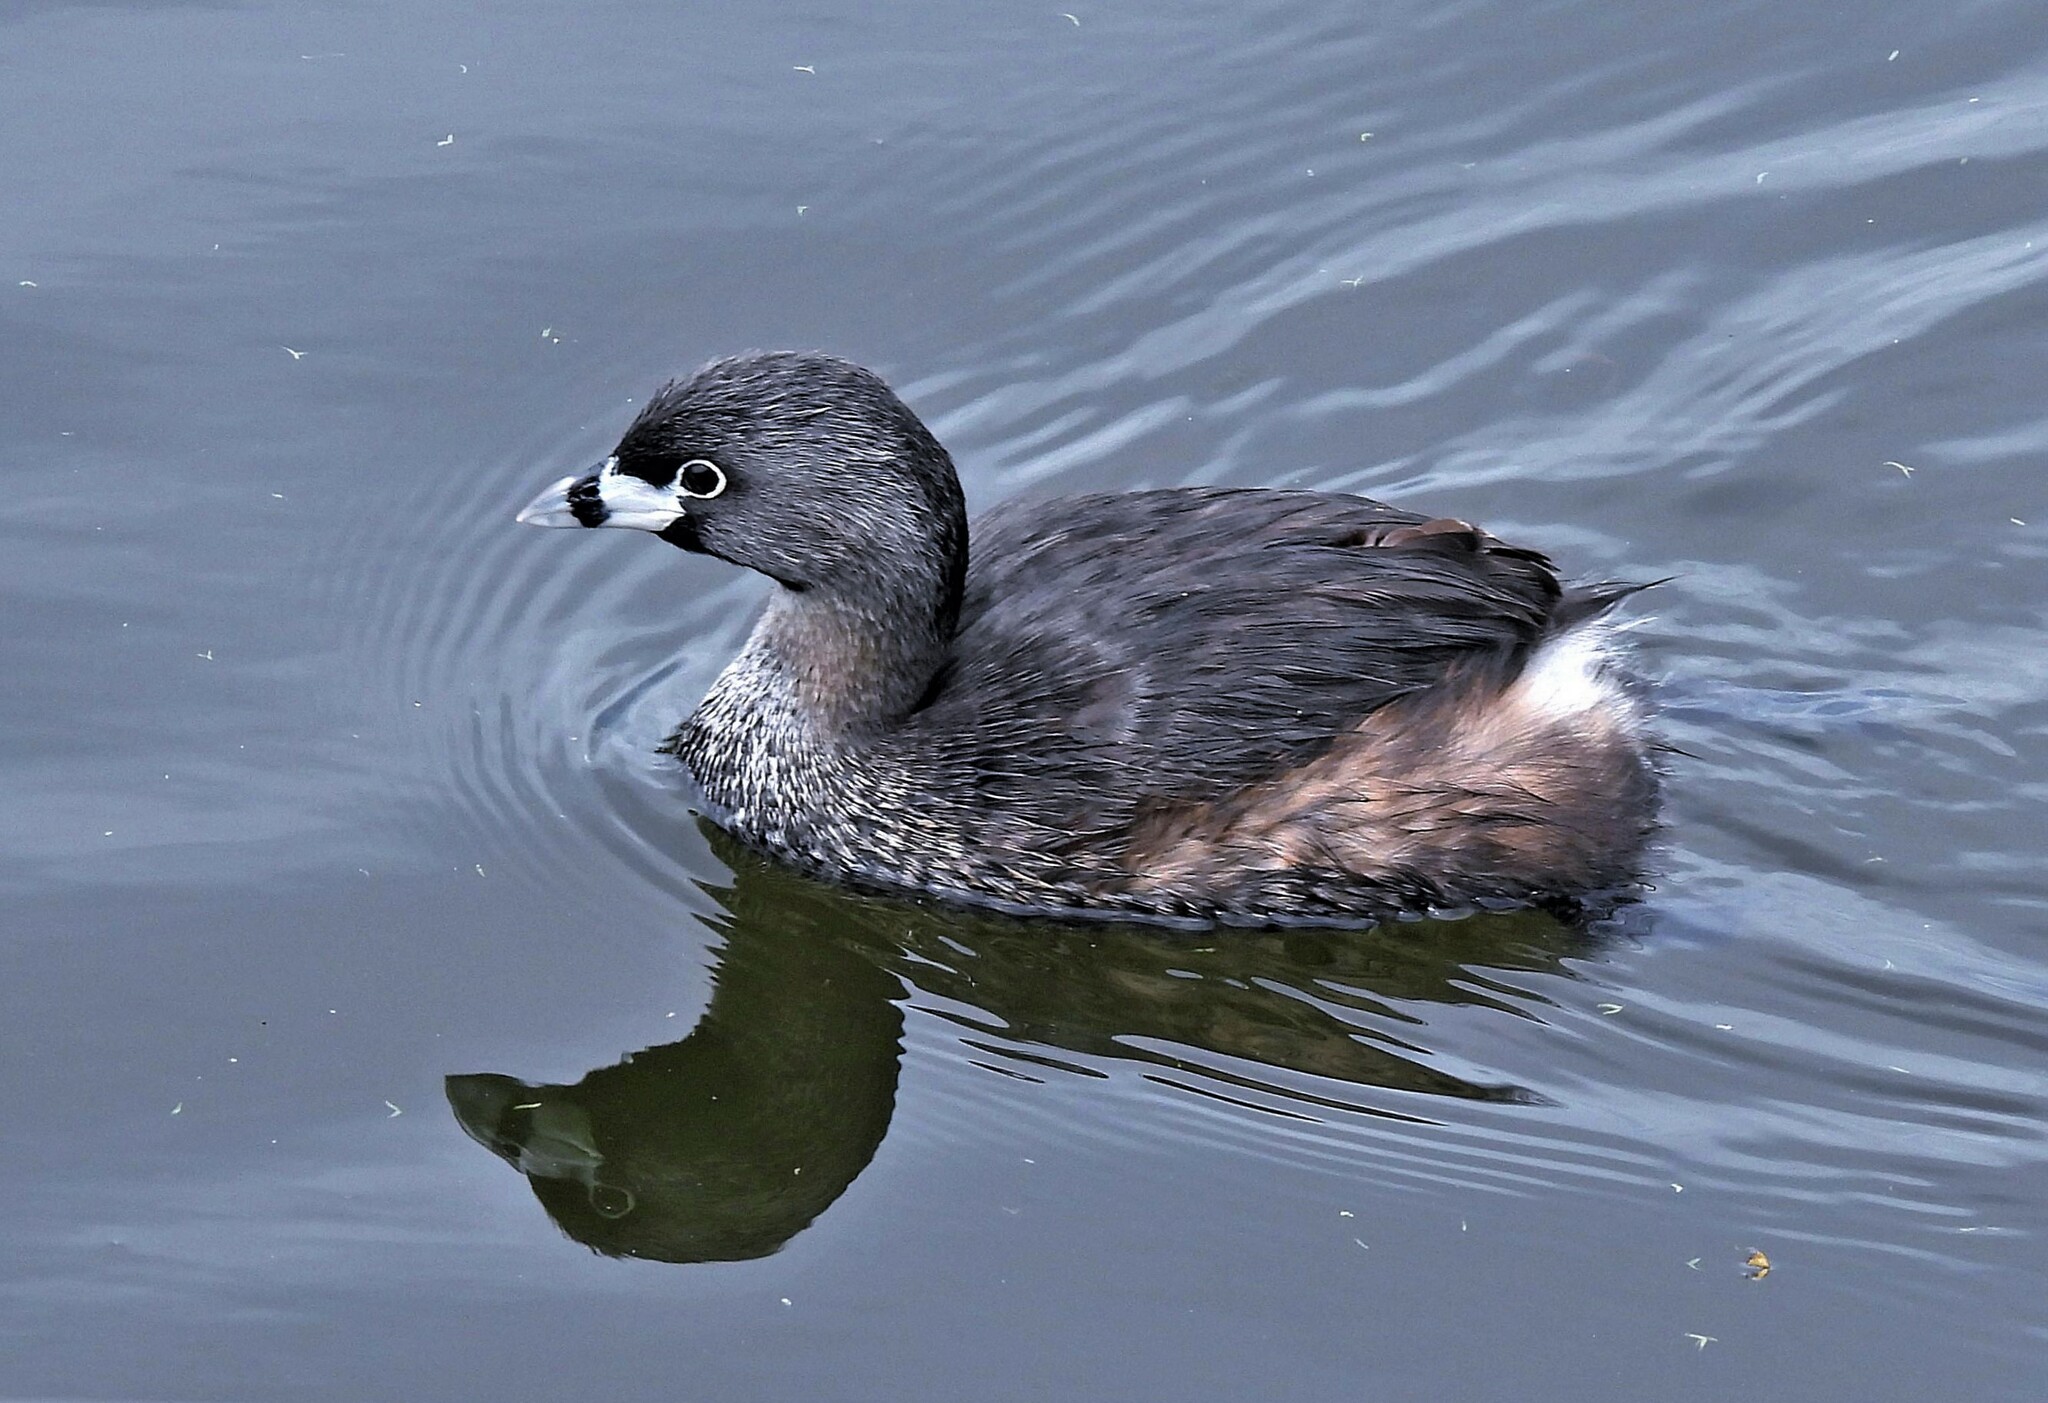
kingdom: Animalia
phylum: Chordata
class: Aves
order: Podicipediformes
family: Podicipedidae
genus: Podilymbus
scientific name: Podilymbus podiceps
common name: Pied-billed grebe
